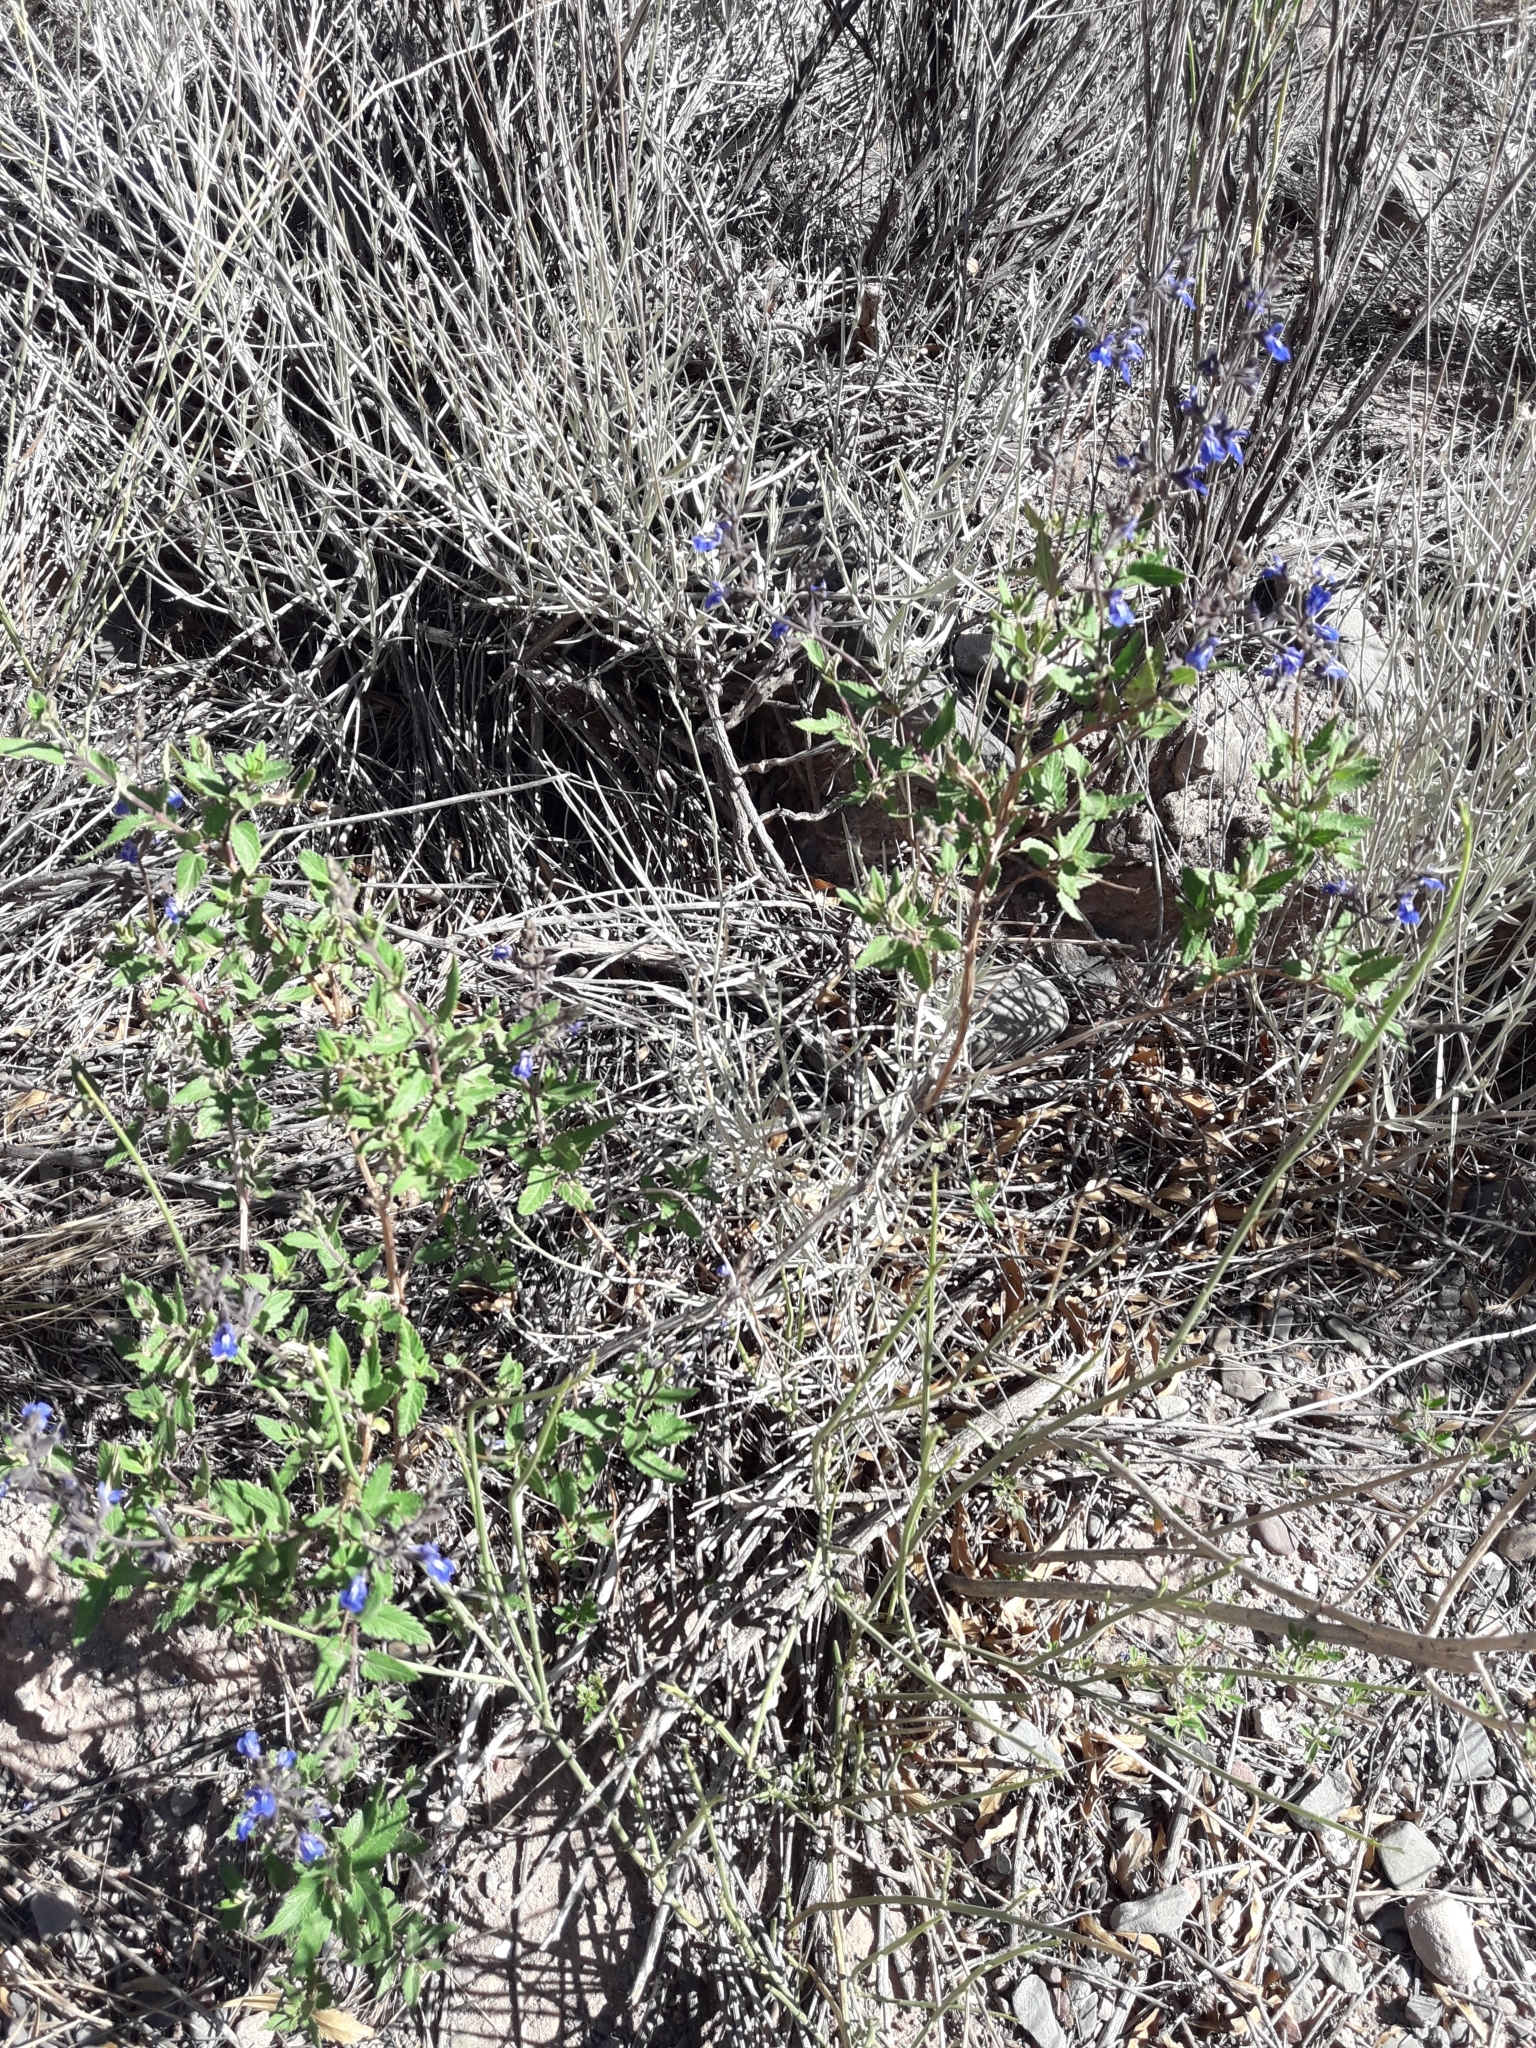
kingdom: Plantae
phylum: Tracheophyta
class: Magnoliopsida
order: Lamiales
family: Lamiaceae
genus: Salvia
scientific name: Salvia cuspidata
